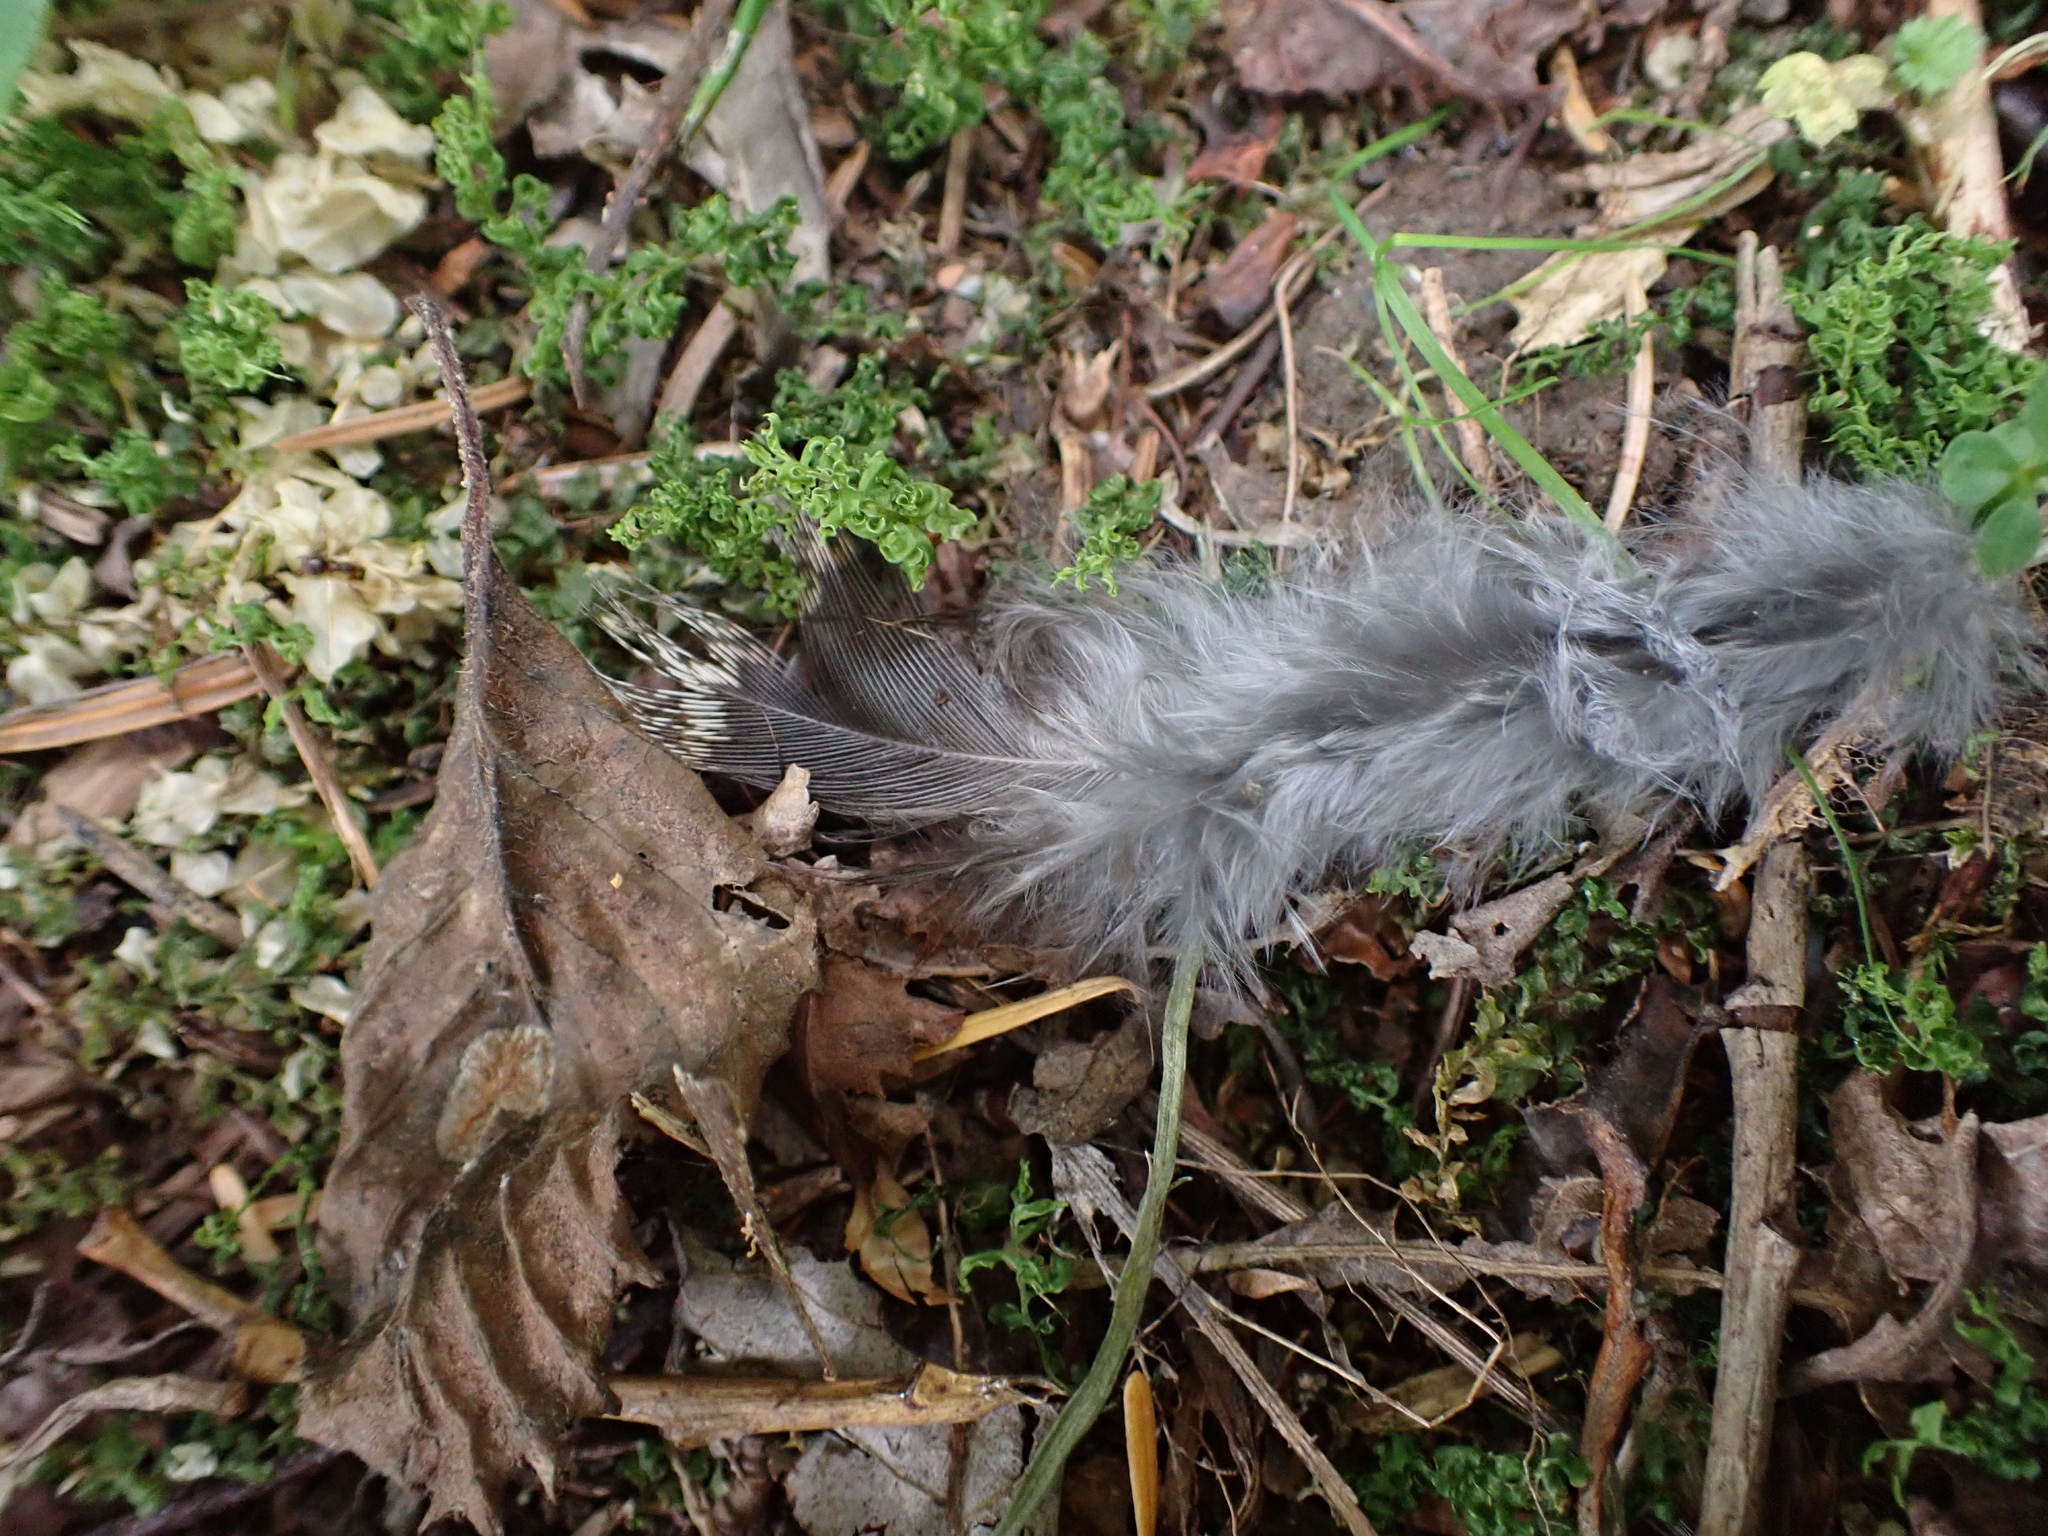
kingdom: Animalia
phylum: Chordata
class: Aves
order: Galliformes
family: Phasianidae
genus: Bonasa
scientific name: Bonasa umbellus
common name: Ruffed grouse
